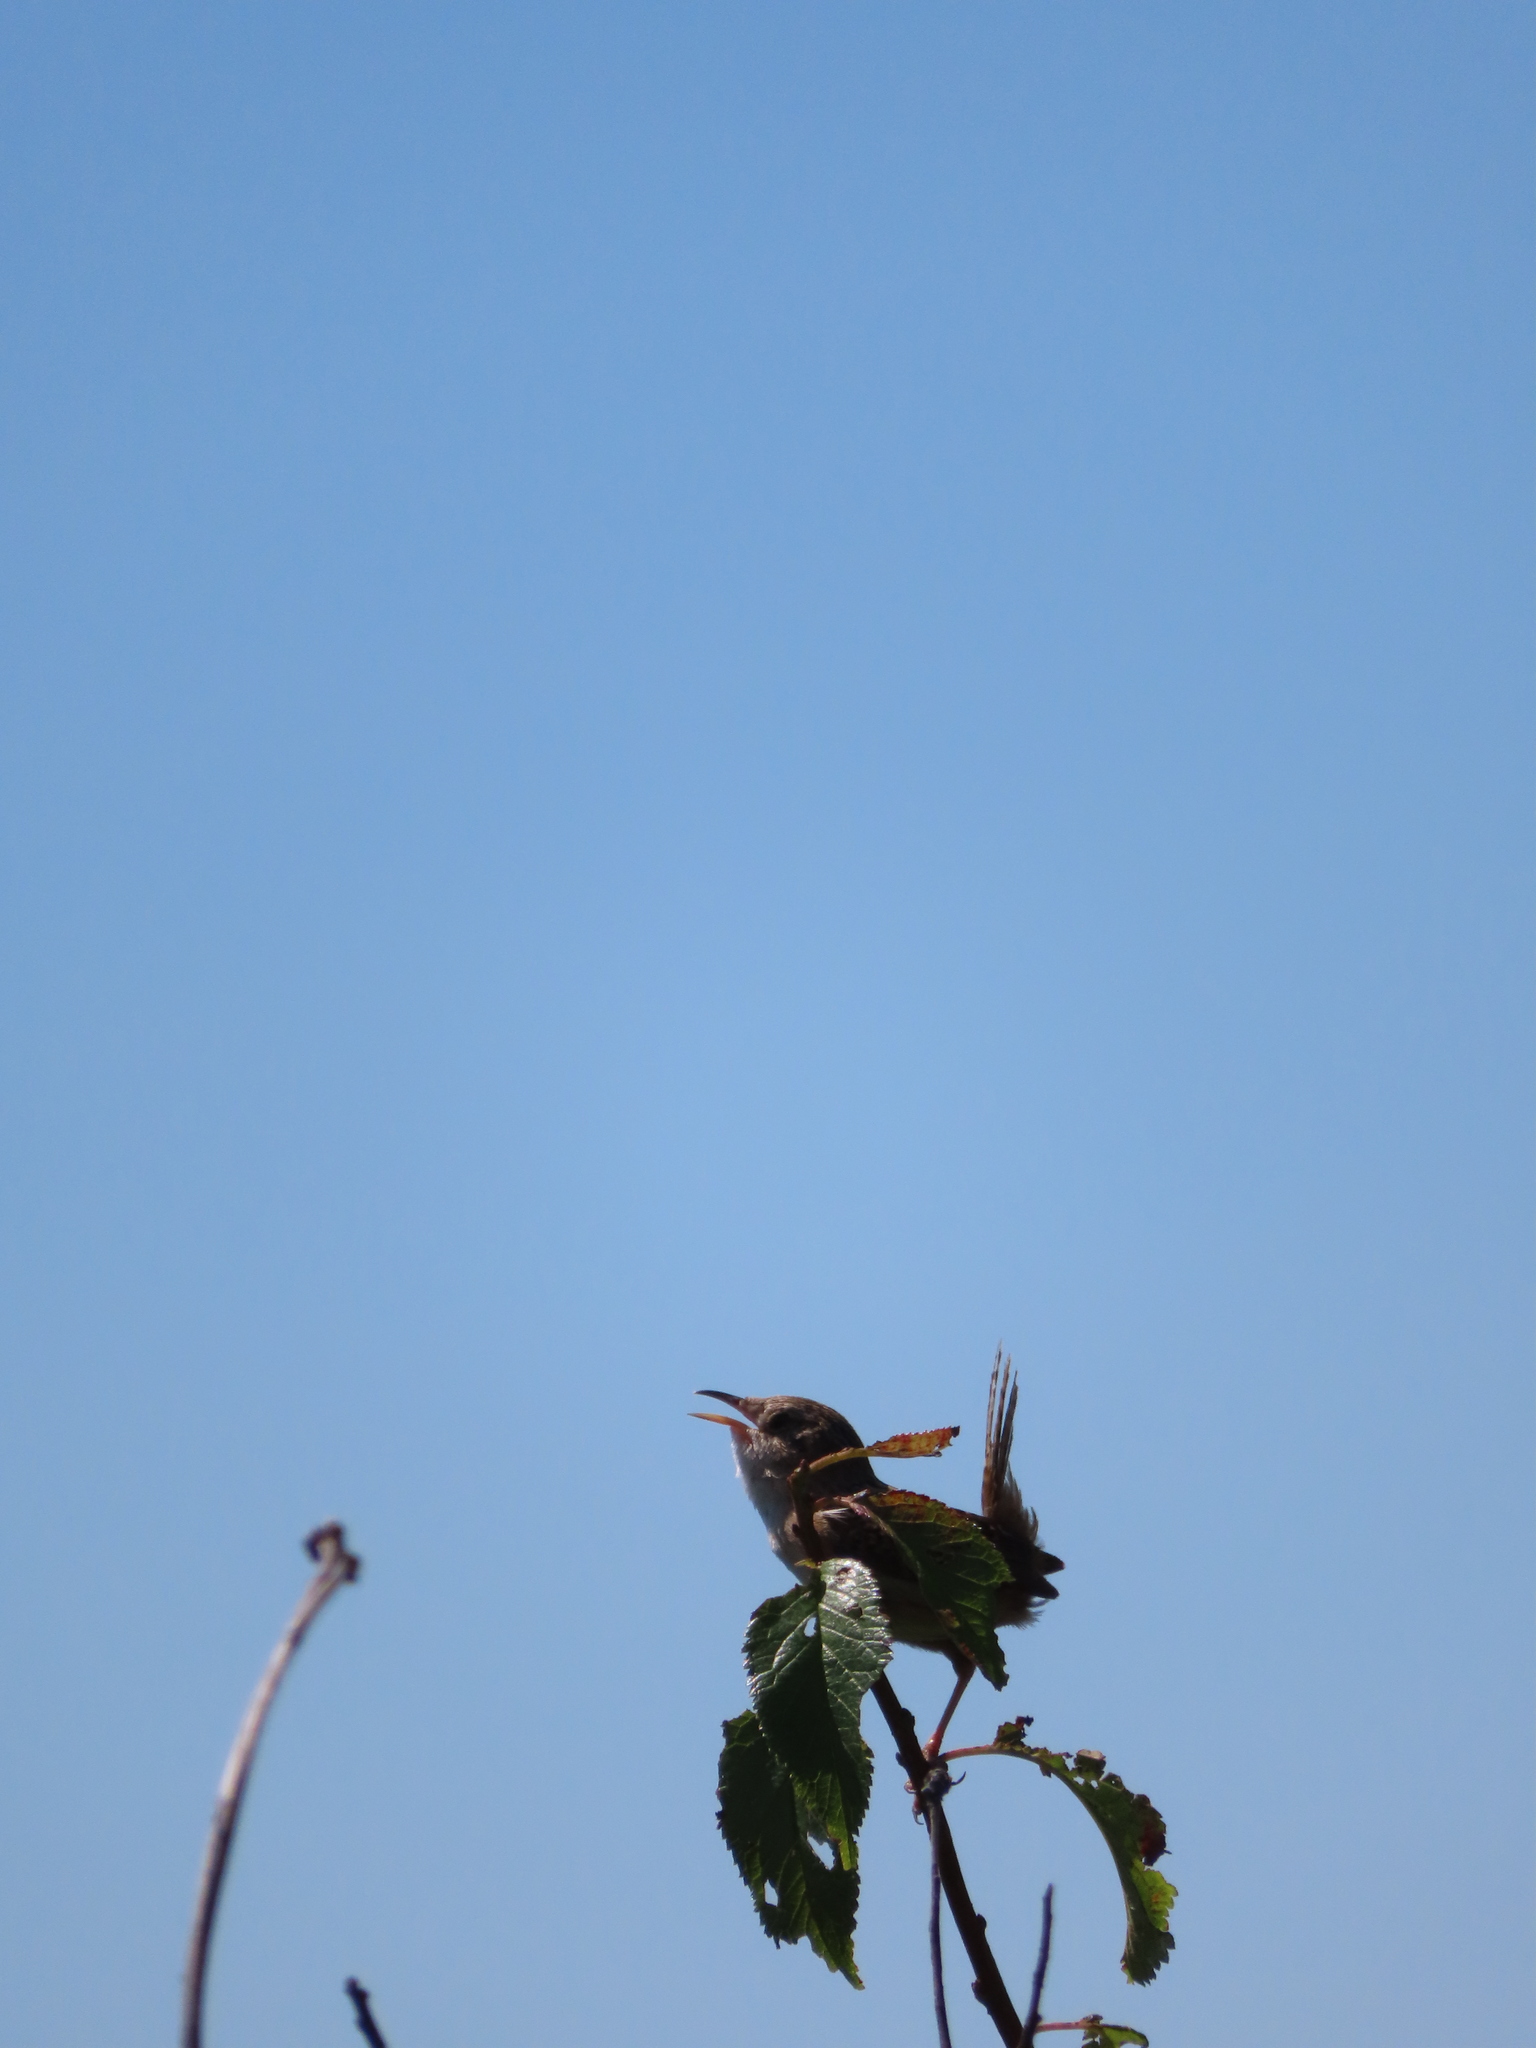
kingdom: Animalia
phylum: Chordata
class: Aves
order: Passeriformes
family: Troglodytidae
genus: Cistothorus
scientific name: Cistothorus platensis
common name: Sedge wren
